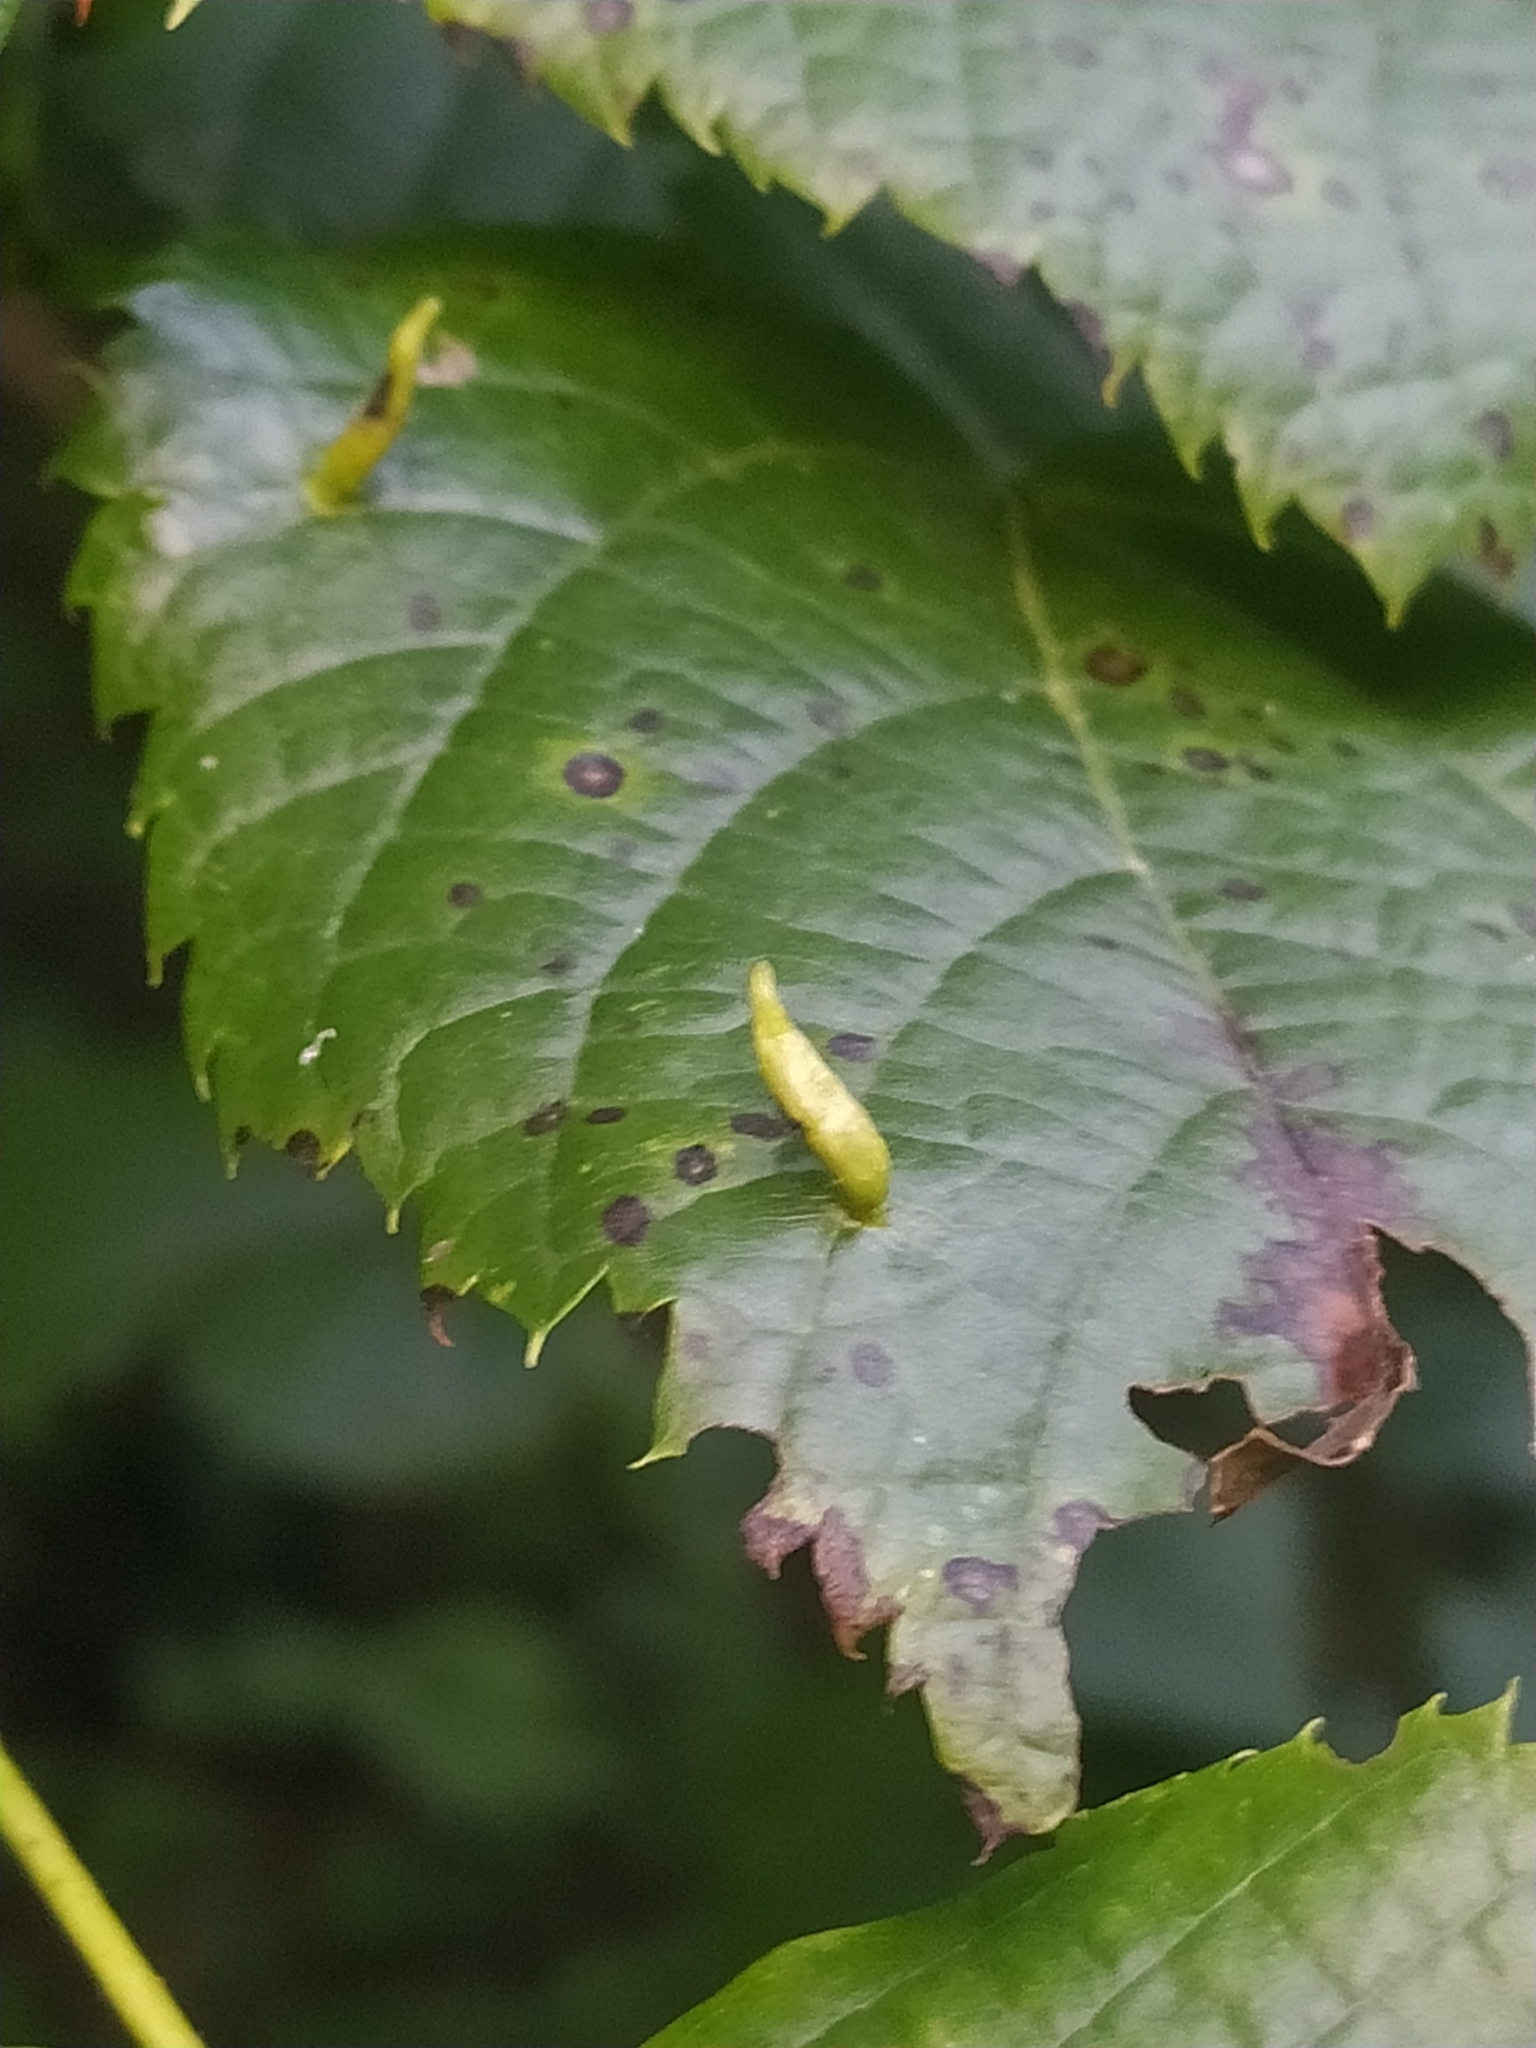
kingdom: Animalia
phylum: Arthropoda
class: Arachnida
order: Trombidiformes
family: Eriophyidae
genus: Eriophyes
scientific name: Eriophyes tiliae
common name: Red nail gall mite
